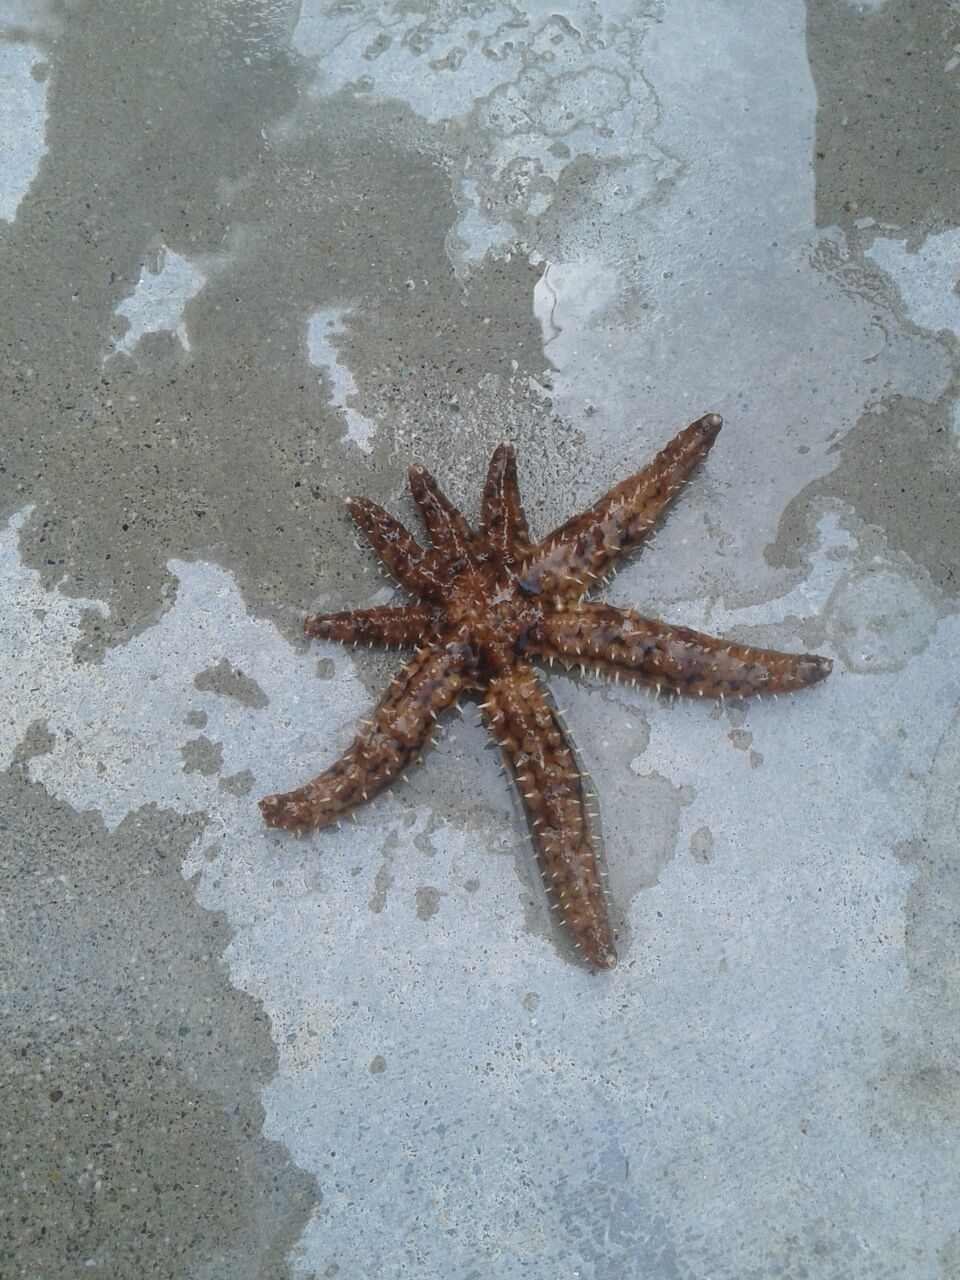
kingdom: Animalia
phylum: Echinodermata
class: Asteroidea
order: Forcipulatida
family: Asteriidae
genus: Coscinasterias
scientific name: Coscinasterias tenuispina
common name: Blue spiny starfish
